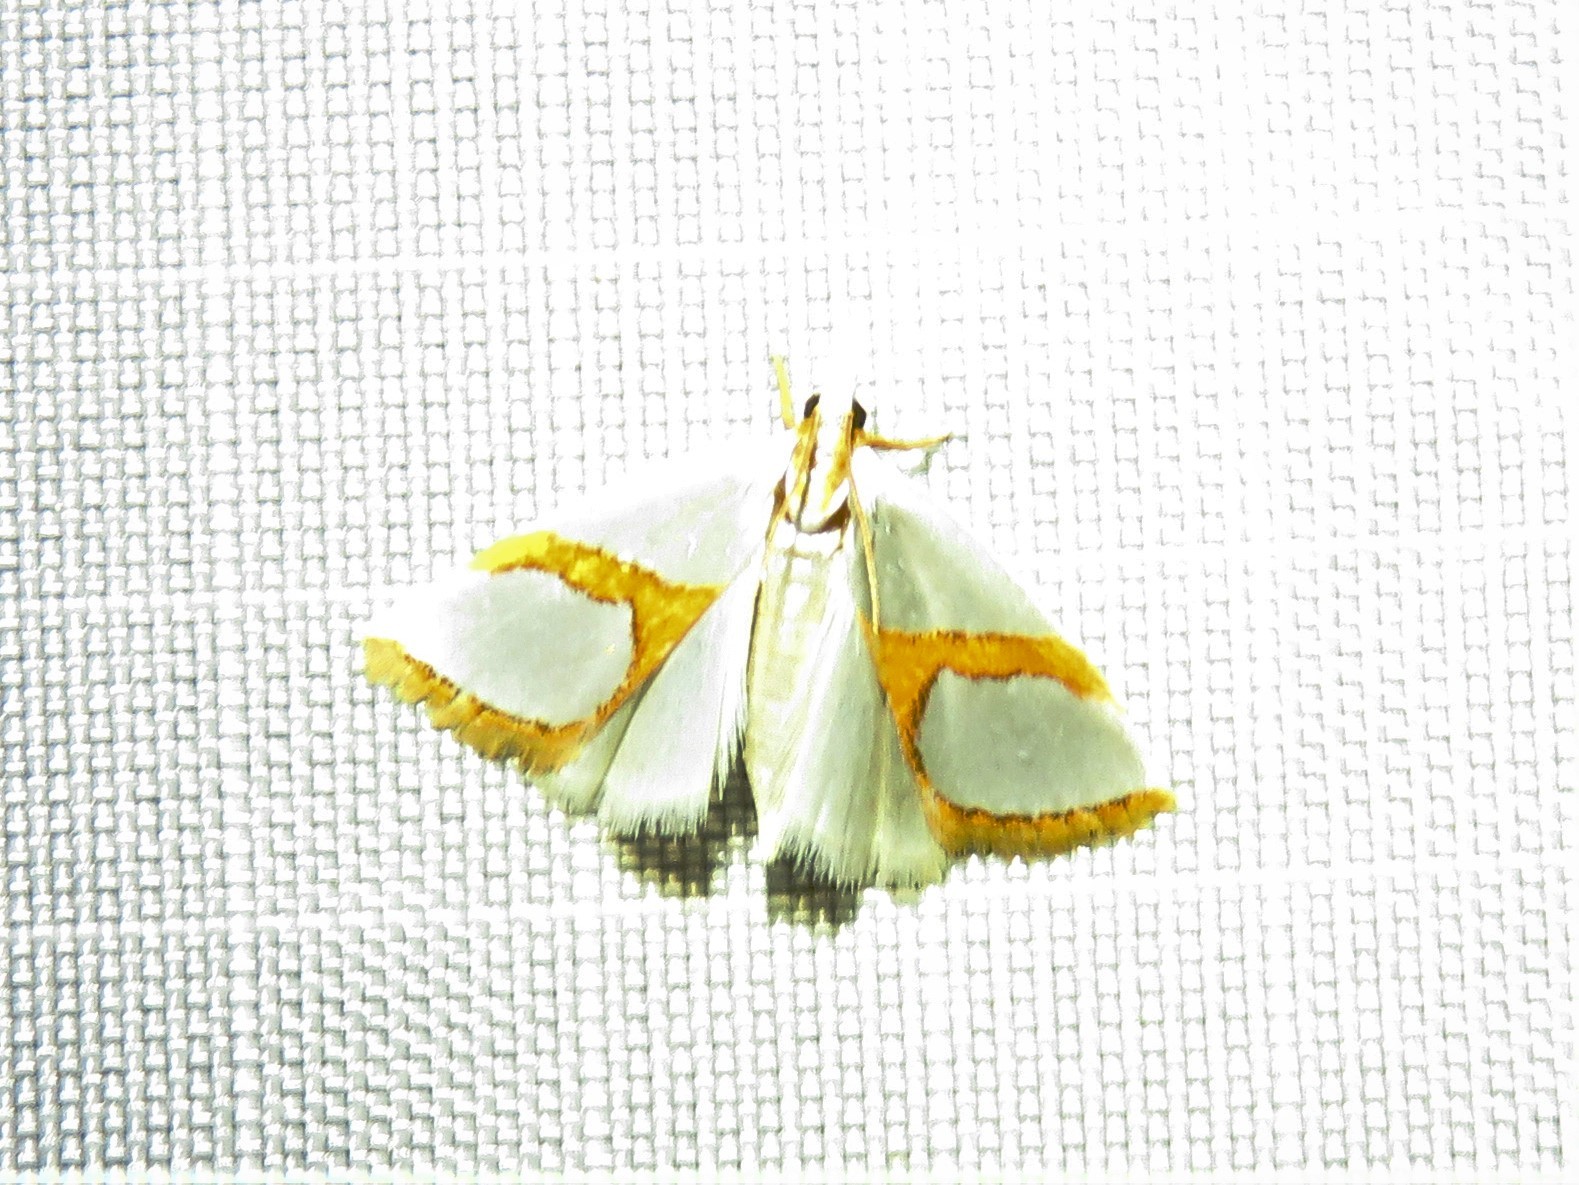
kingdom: Animalia
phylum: Arthropoda
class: Insecta
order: Lepidoptera
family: Crambidae
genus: Argyria
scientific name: Argyria auratella
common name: Curve-lined argyria moth
